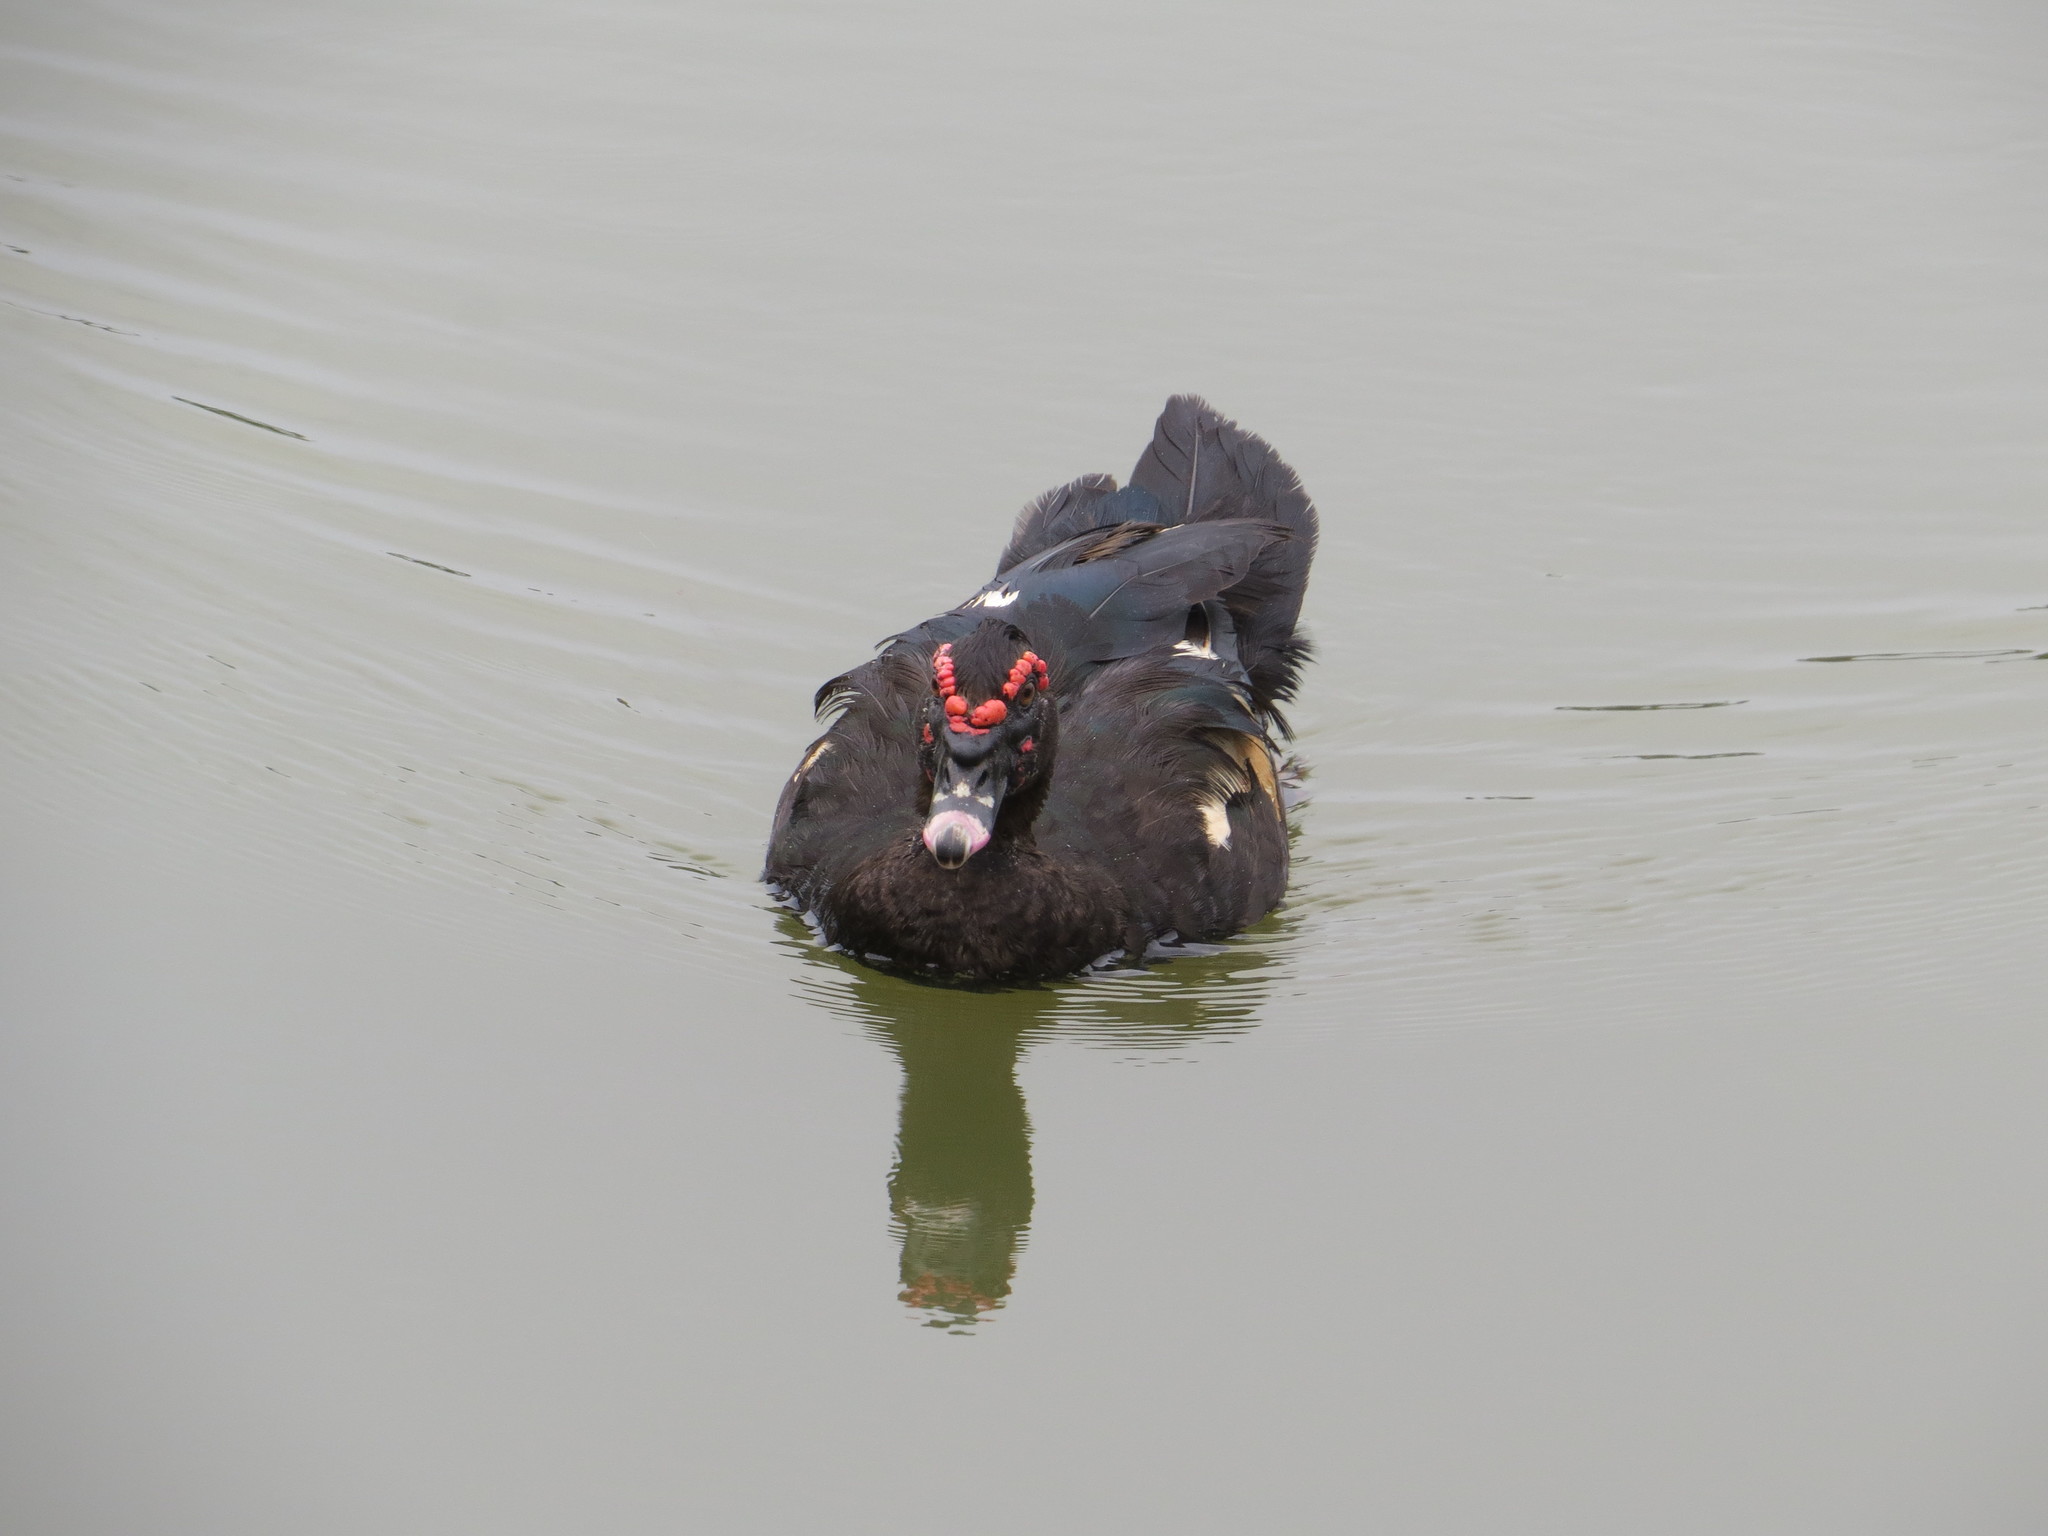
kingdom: Animalia
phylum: Chordata
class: Aves
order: Anseriformes
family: Anatidae
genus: Cairina
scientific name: Cairina moschata
